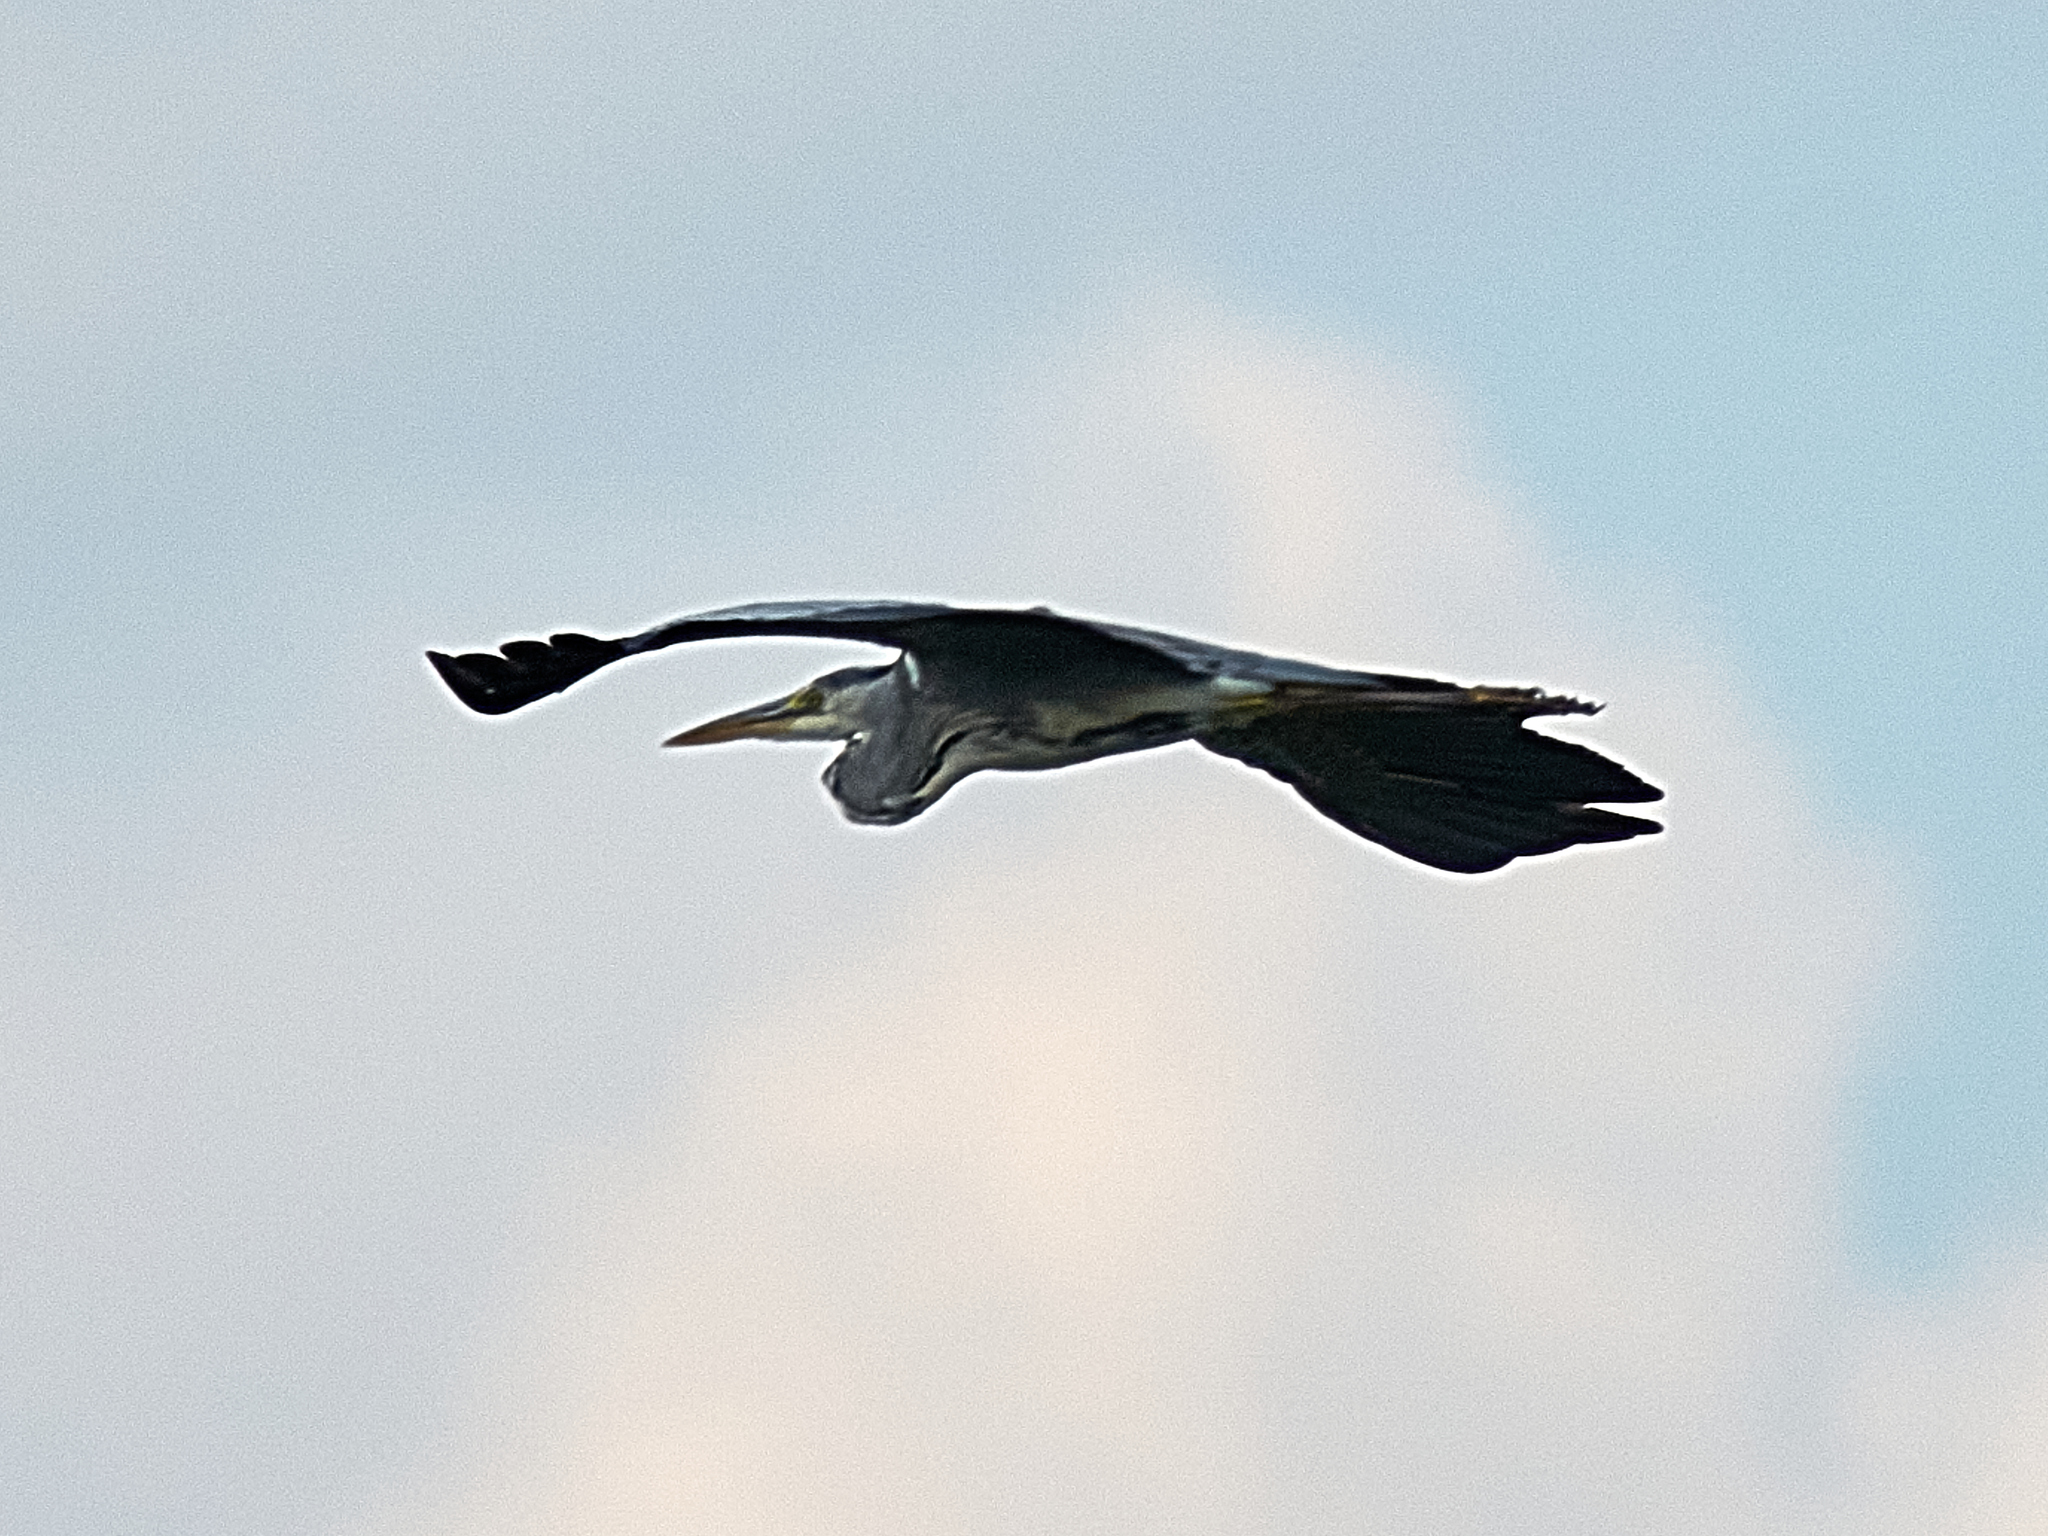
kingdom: Animalia
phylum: Chordata
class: Aves
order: Pelecaniformes
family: Ardeidae
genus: Ardea
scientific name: Ardea cinerea
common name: Grey heron
